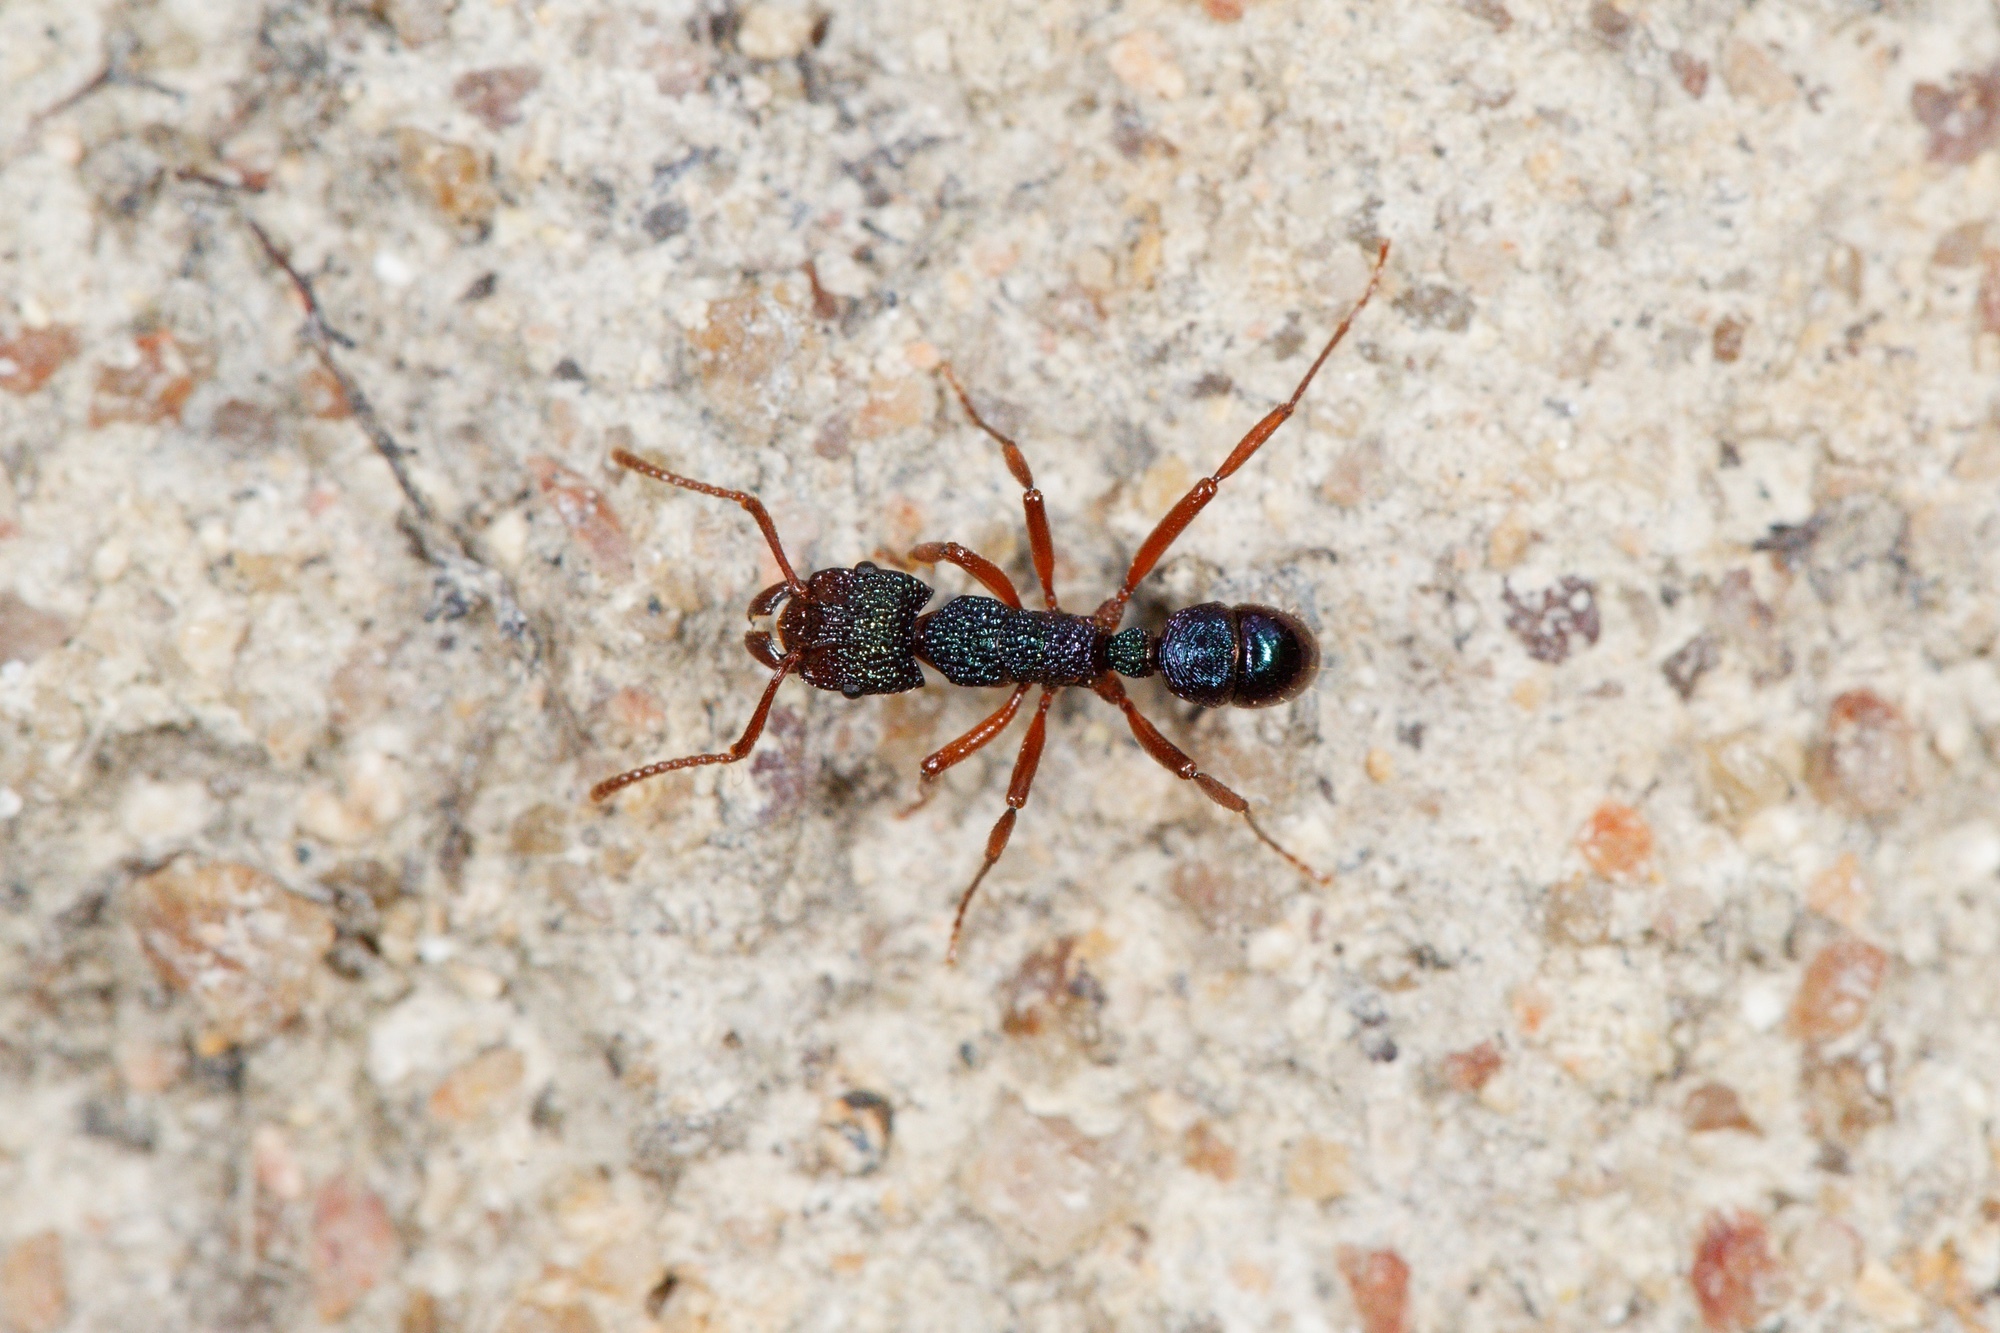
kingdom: Animalia
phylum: Arthropoda
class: Insecta
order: Hymenoptera
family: Formicidae
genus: Rhytidoponera
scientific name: Rhytidoponera aspera
